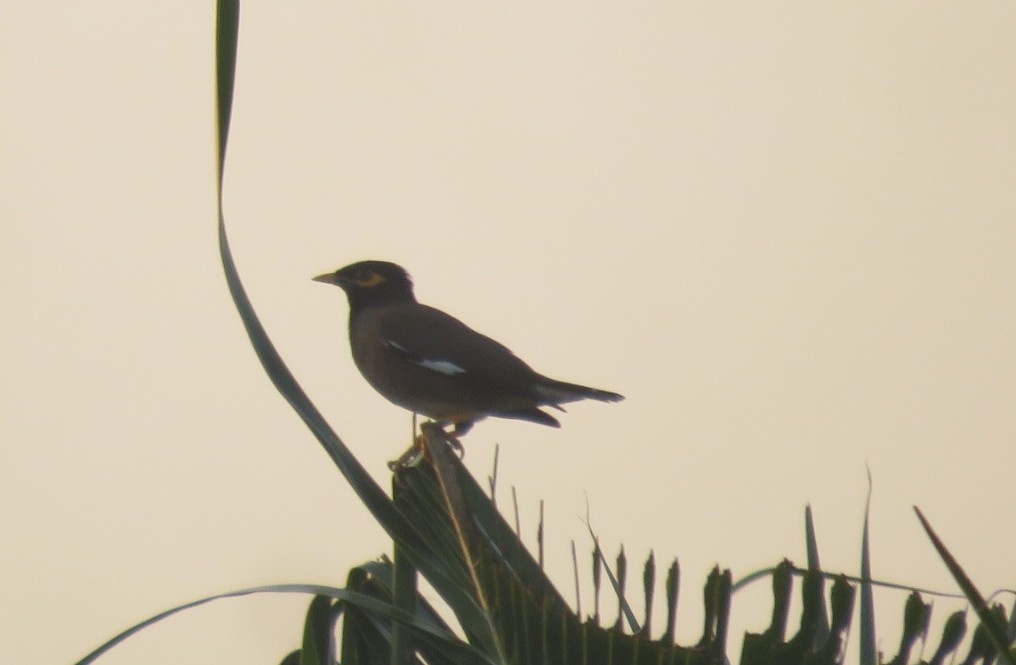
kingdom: Animalia
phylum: Chordata
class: Aves
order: Passeriformes
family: Sturnidae
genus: Acridotheres
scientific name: Acridotheres tristis
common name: Common myna
